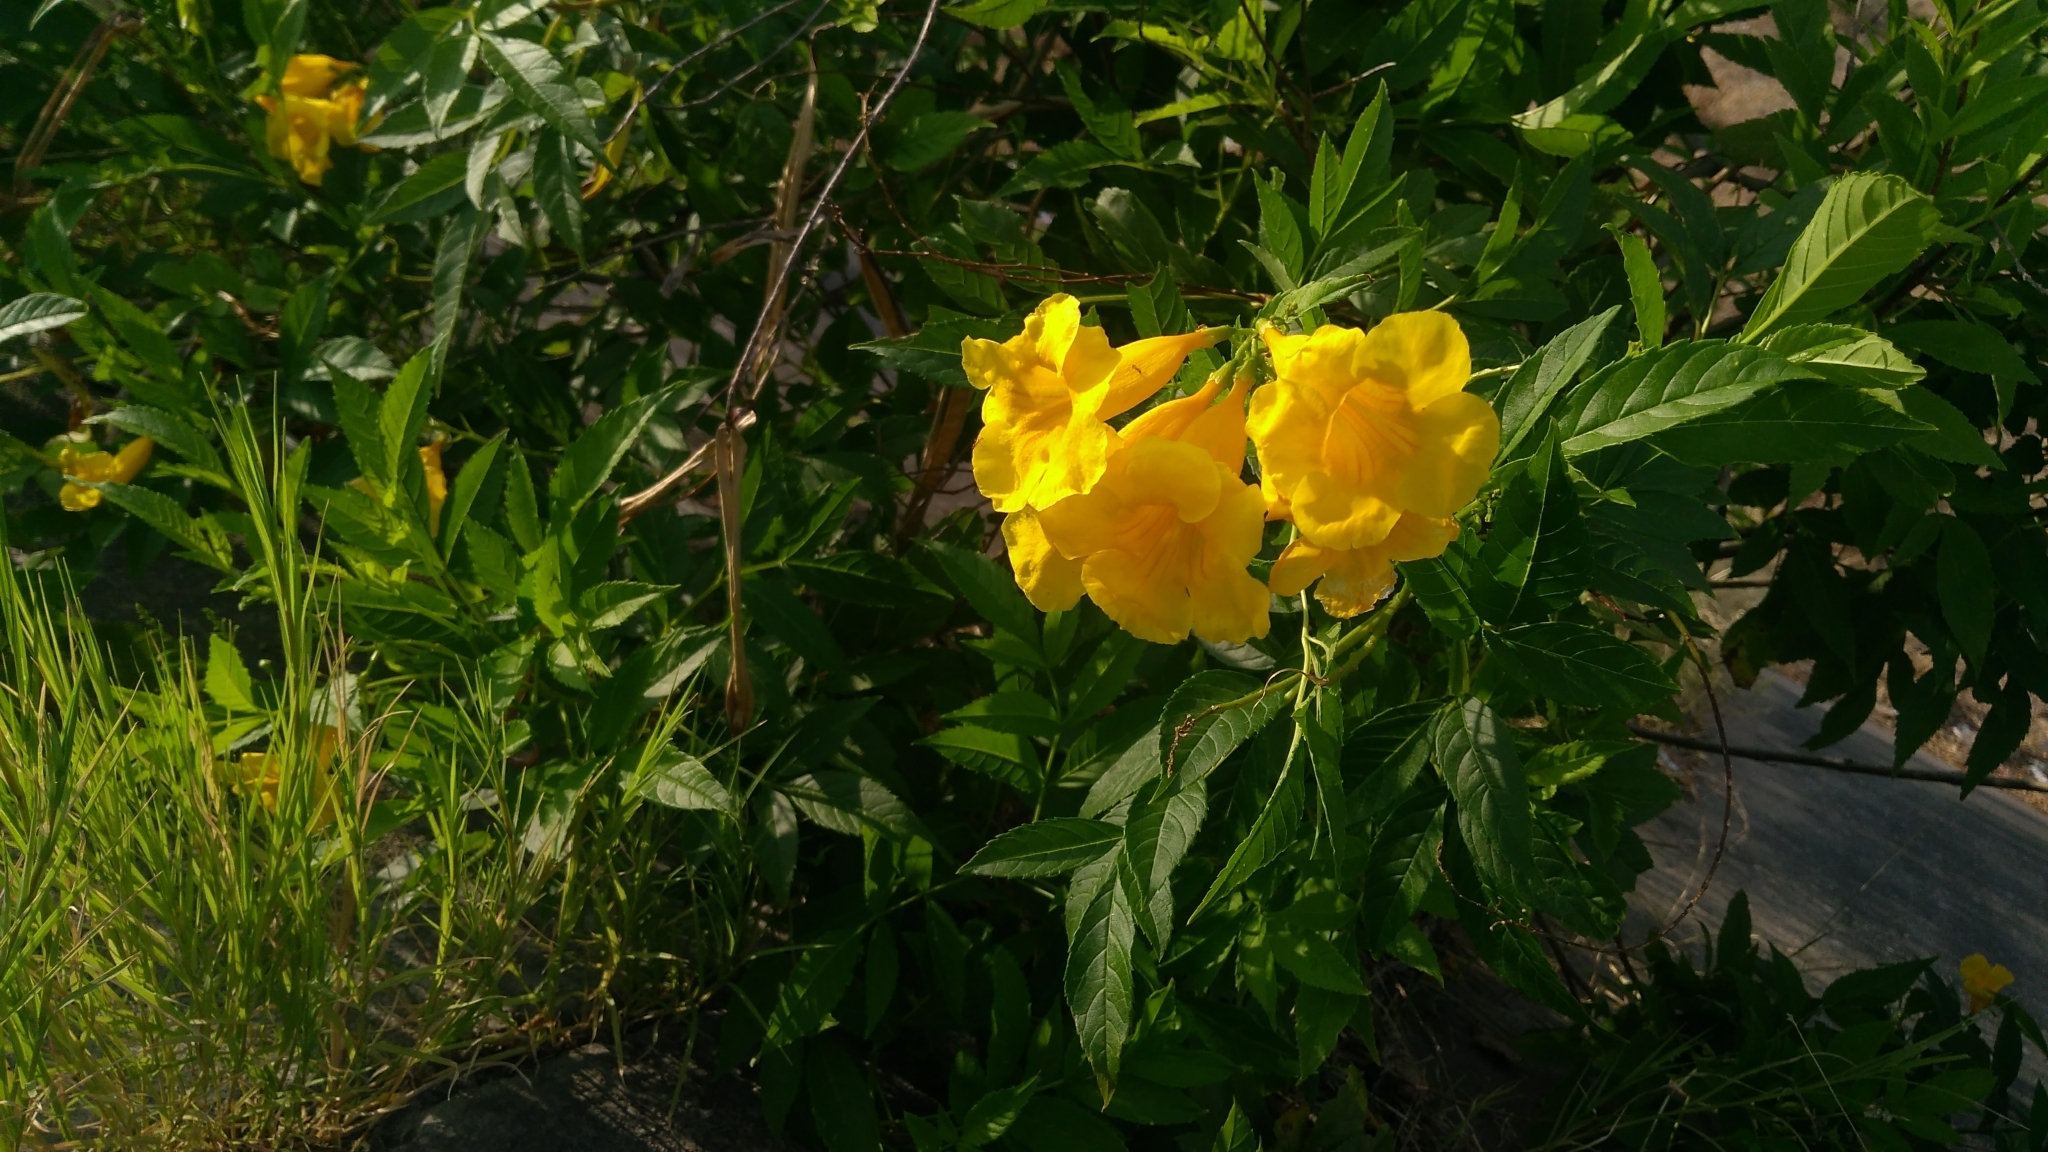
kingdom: Plantae
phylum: Tracheophyta
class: Magnoliopsida
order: Lamiales
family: Bignoniaceae
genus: Tecoma
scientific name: Tecoma stans
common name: Yellow trumpetbush
